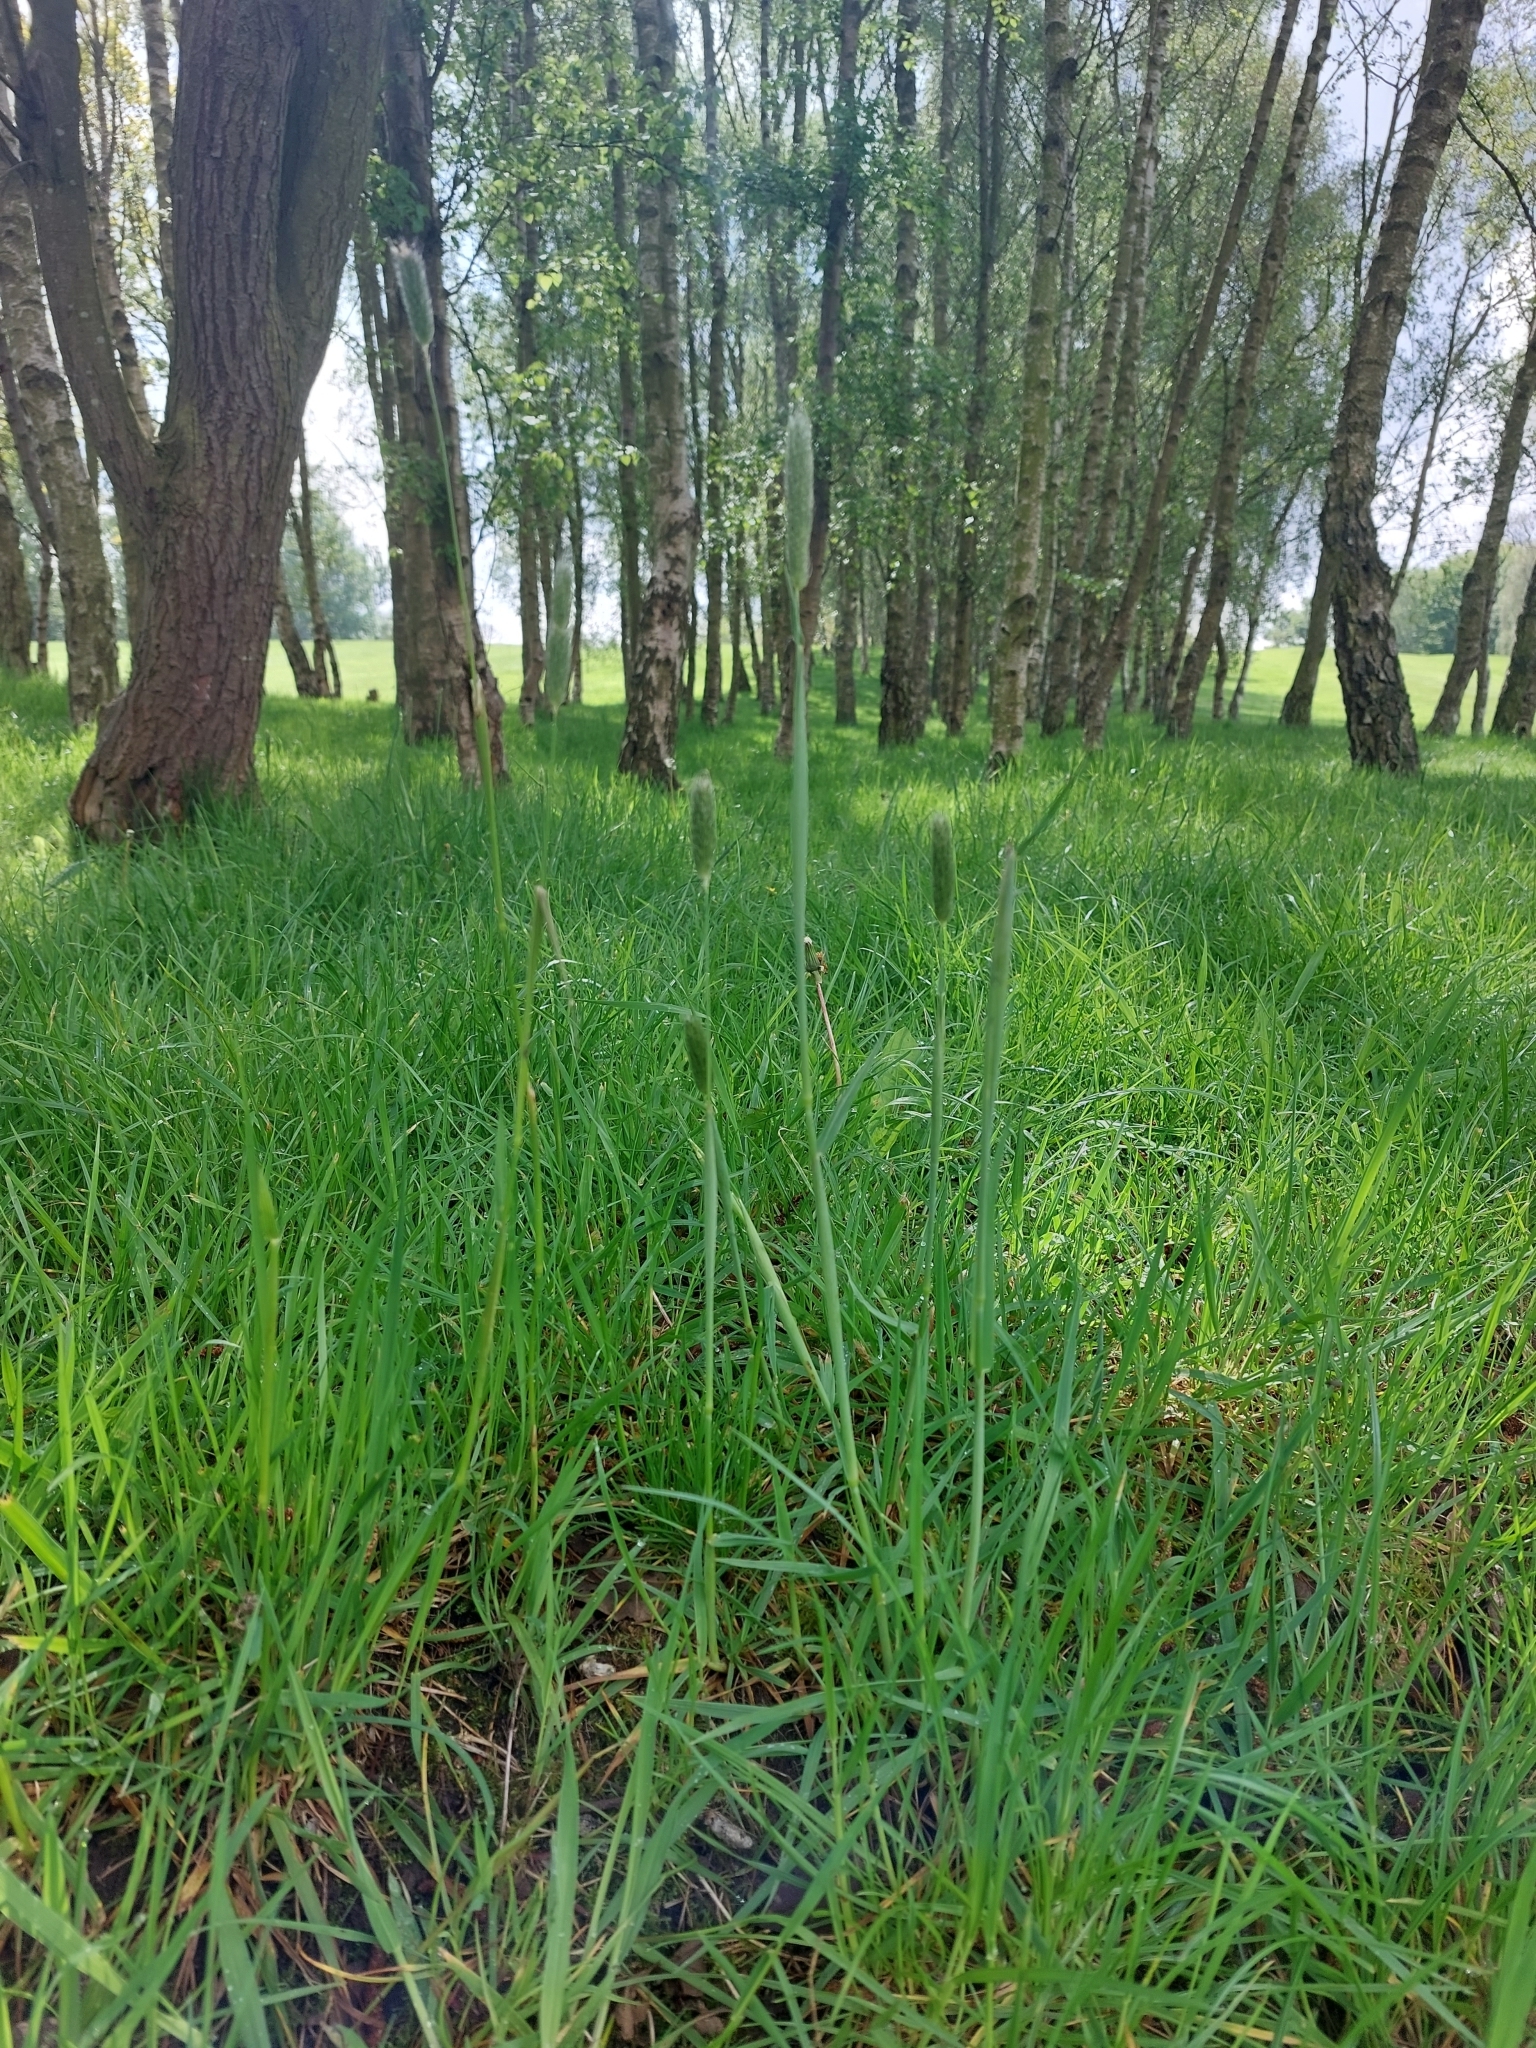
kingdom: Plantae
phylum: Tracheophyta
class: Liliopsida
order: Poales
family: Poaceae
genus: Alopecurus
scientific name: Alopecurus pratensis
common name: Meadow foxtail
